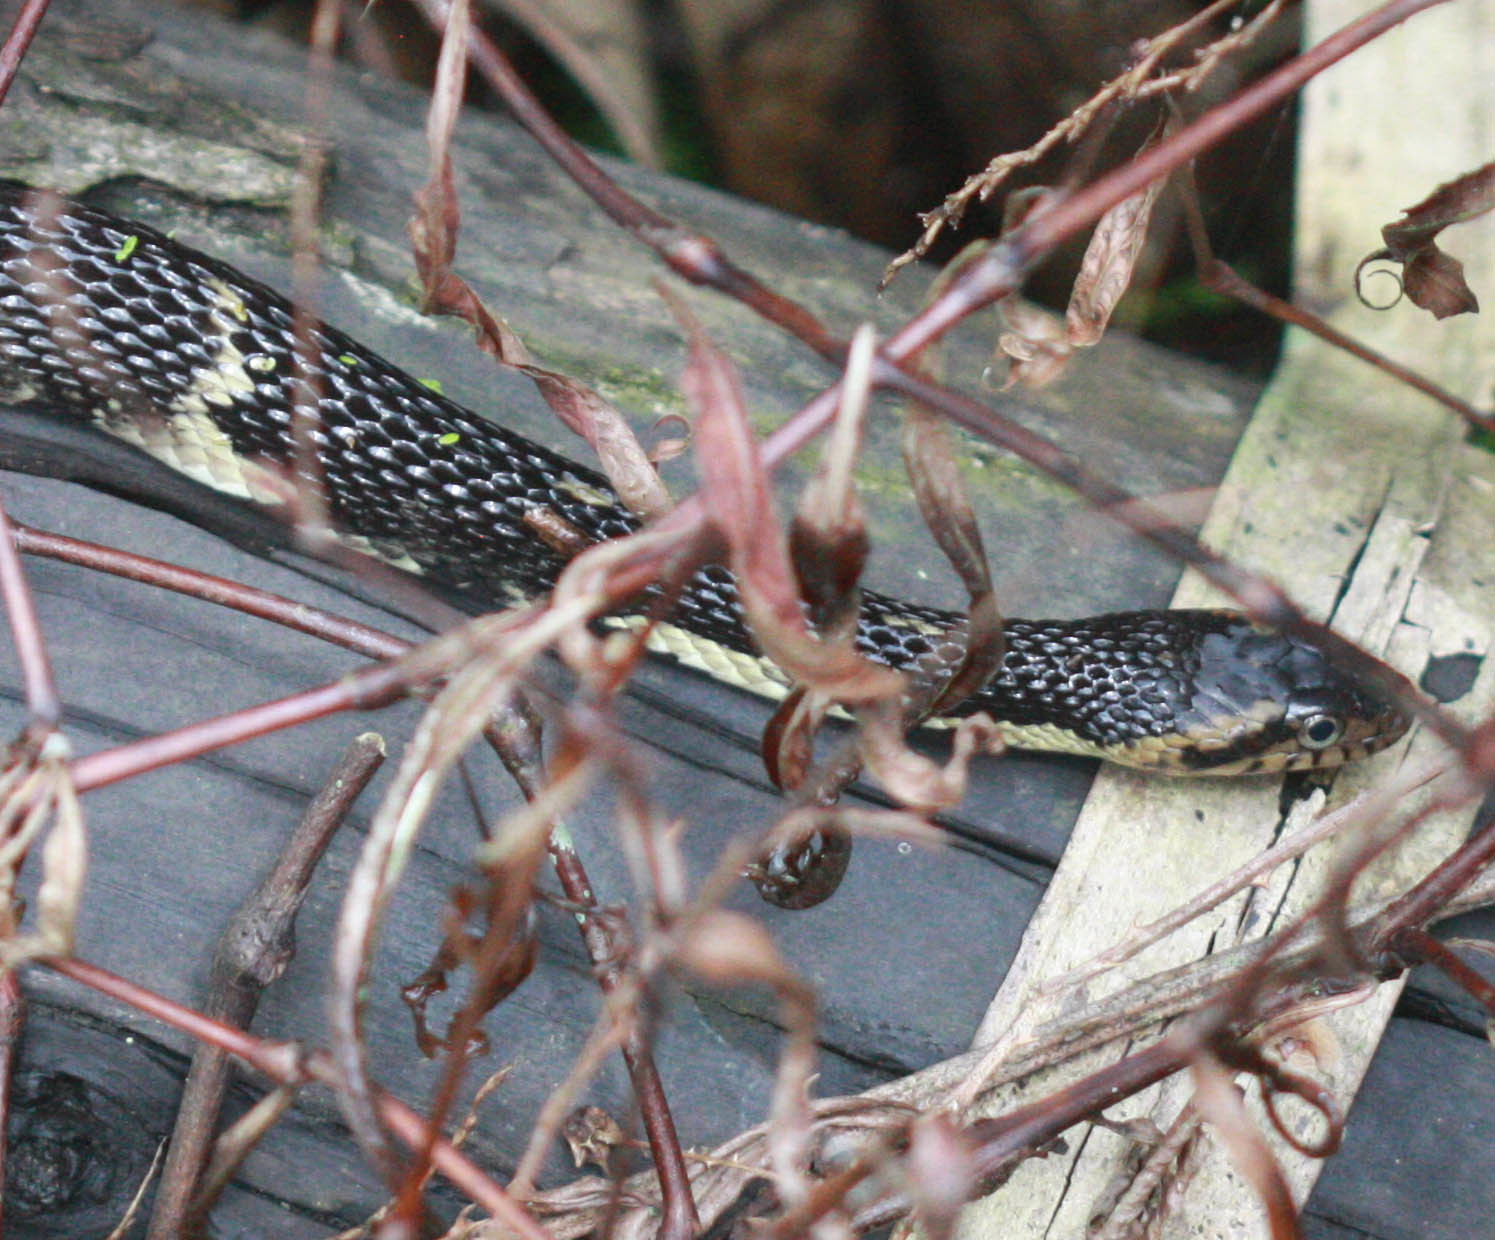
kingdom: Animalia
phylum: Chordata
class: Squamata
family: Colubridae
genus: Nerodia
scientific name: Nerodia fasciata
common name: Southern water snake
